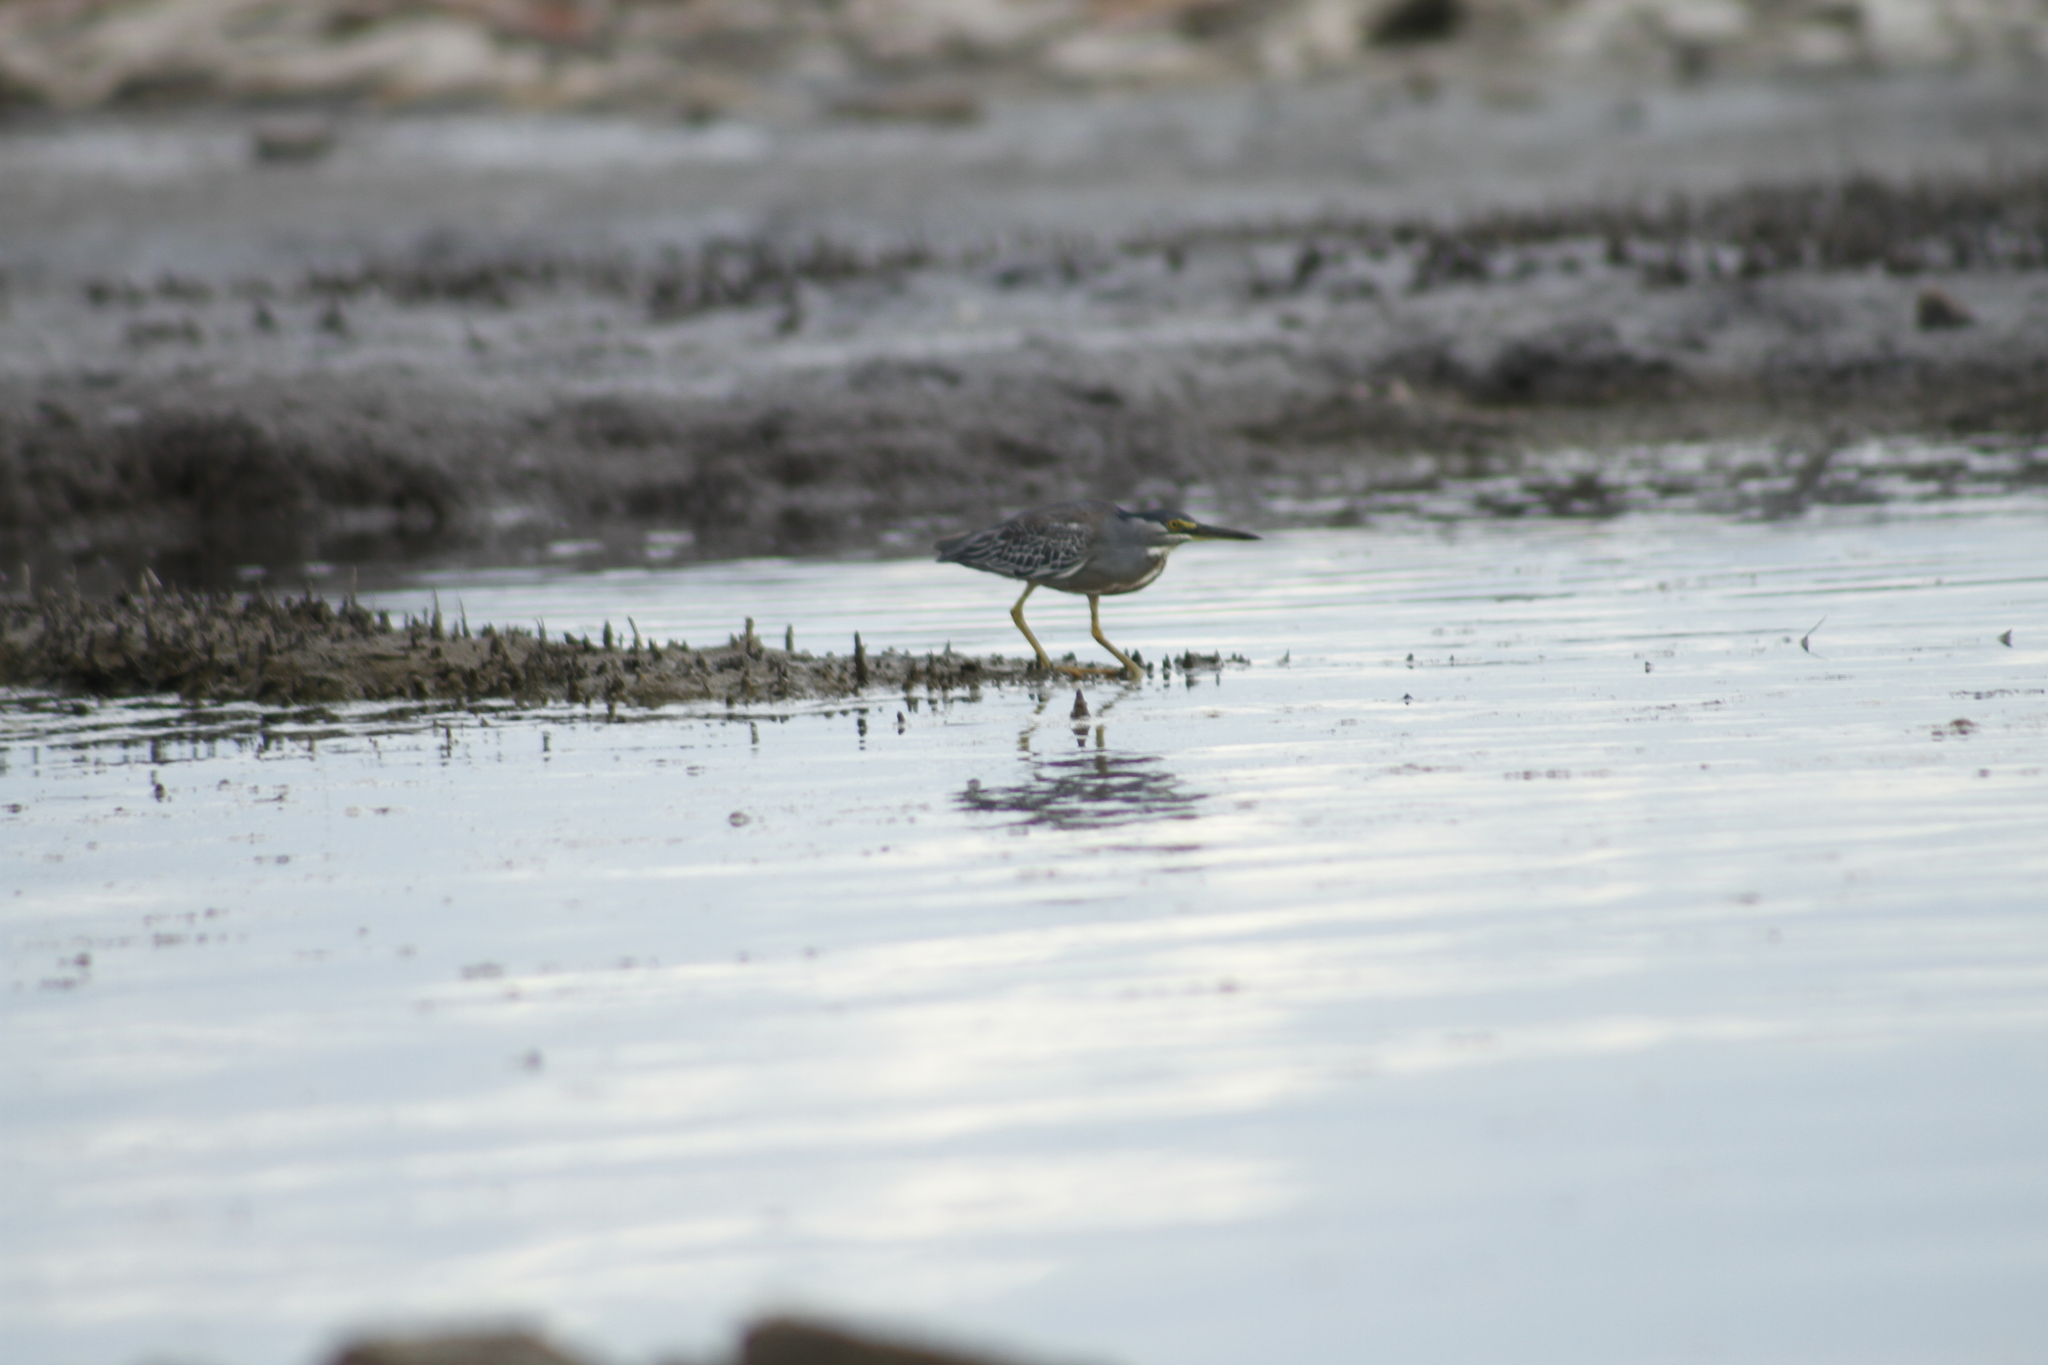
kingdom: Animalia
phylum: Chordata
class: Aves
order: Pelecaniformes
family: Ardeidae
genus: Butorides
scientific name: Butorides striata
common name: Striated heron
